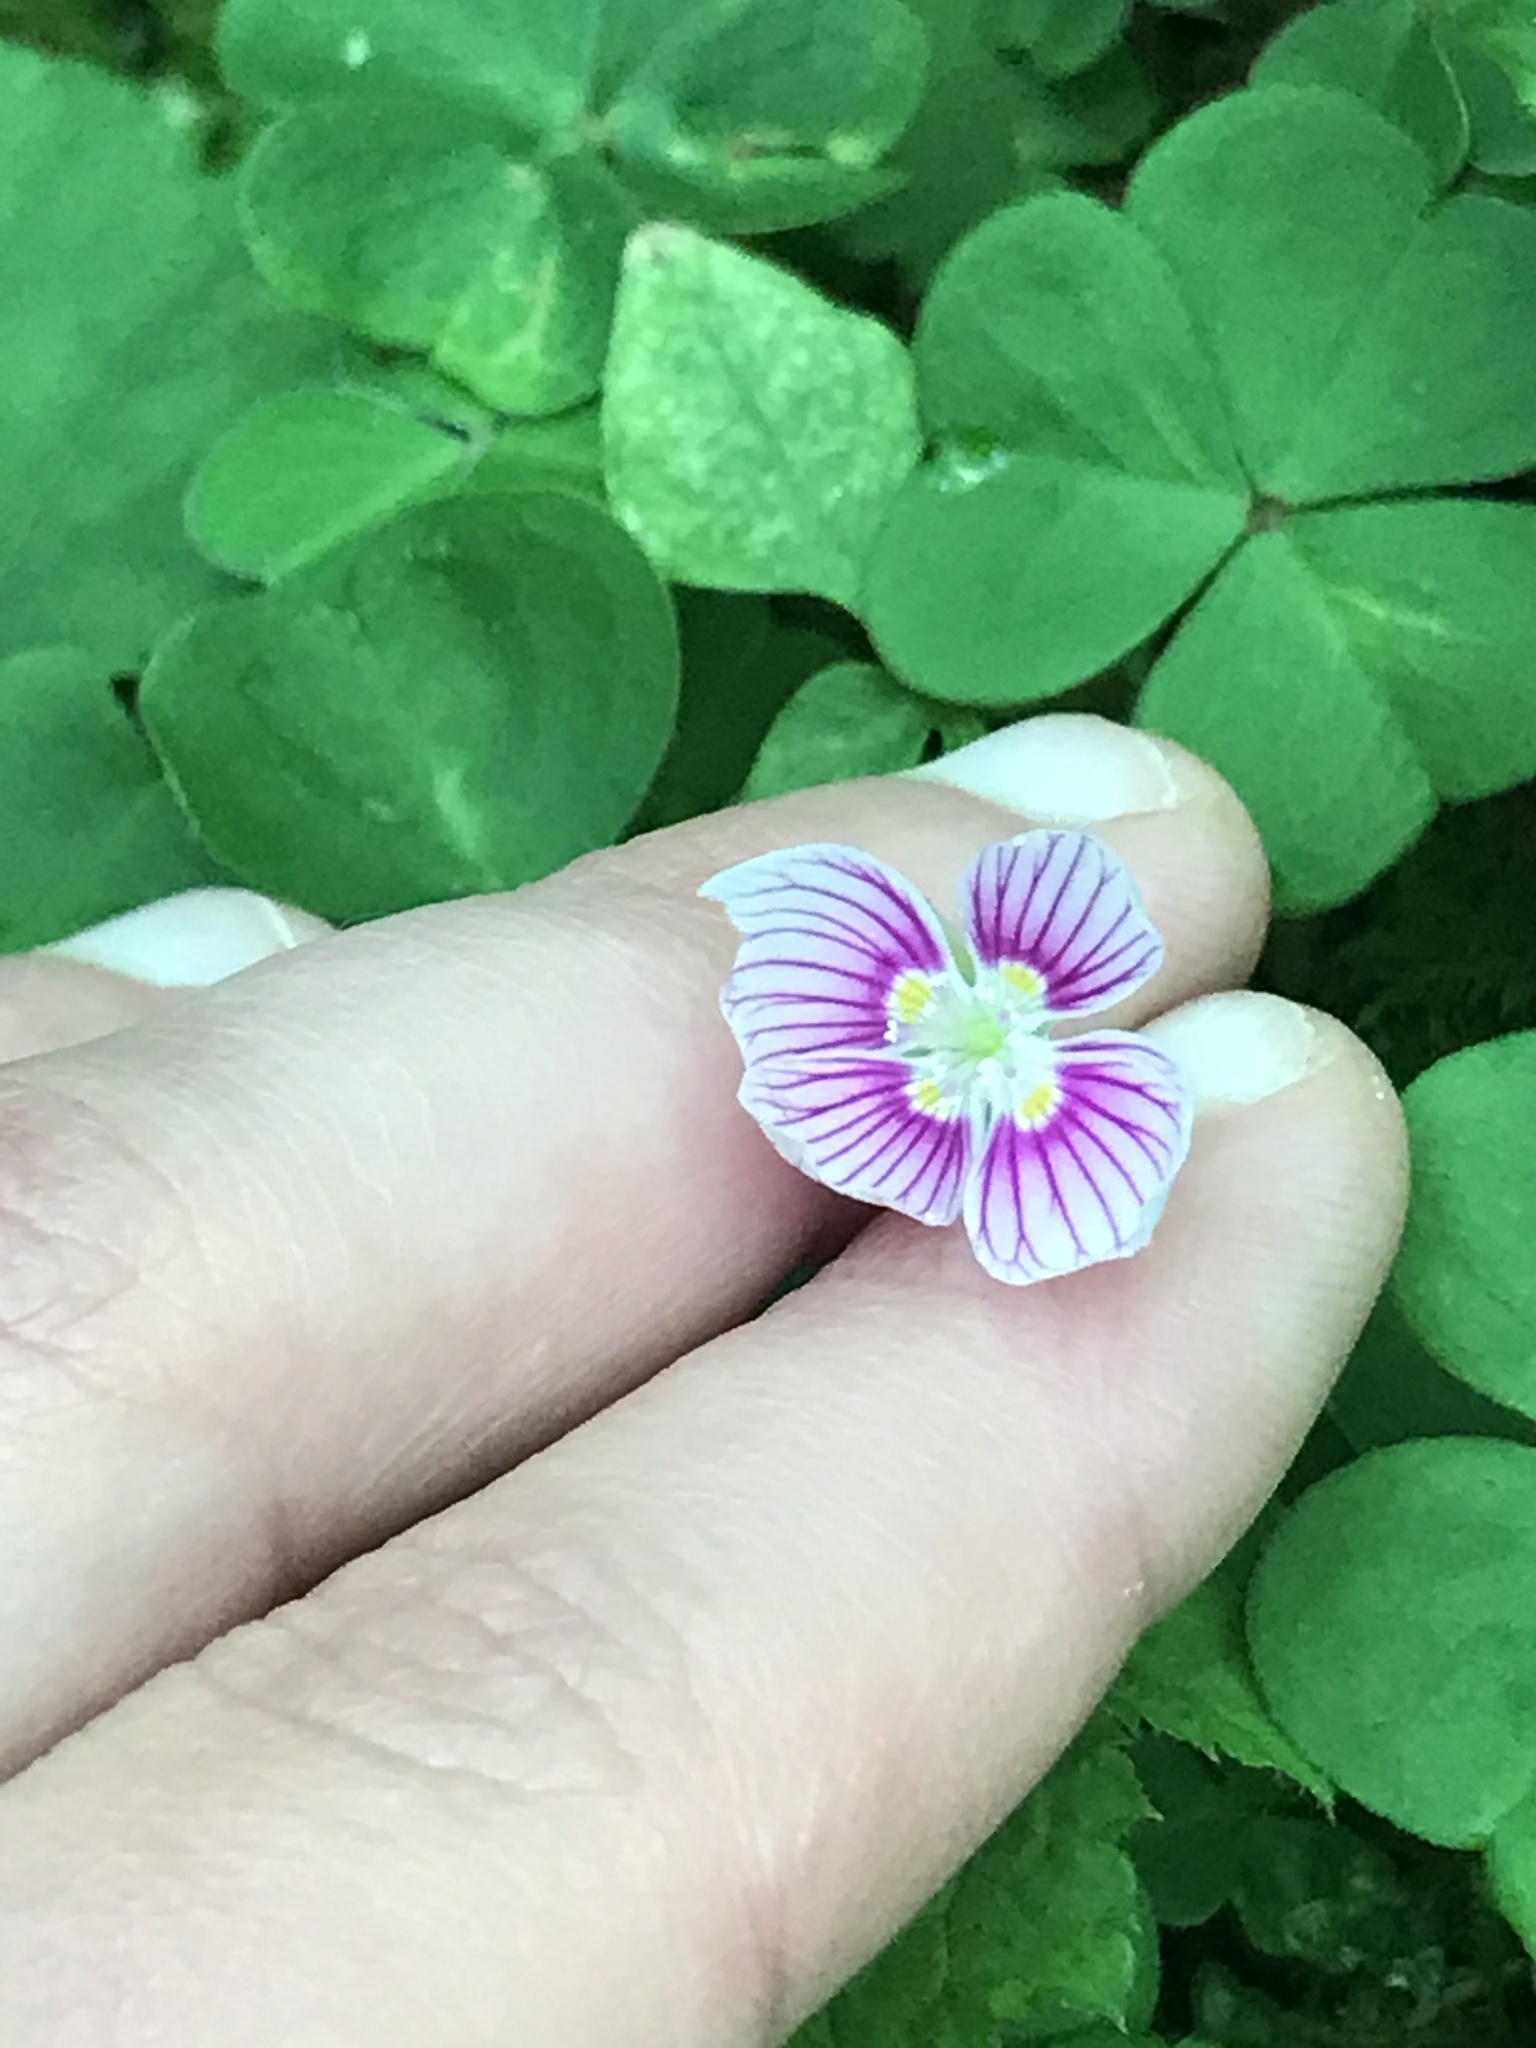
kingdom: Plantae
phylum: Tracheophyta
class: Magnoliopsida
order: Oxalidales
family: Oxalidaceae
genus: Oxalis
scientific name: Oxalis montana
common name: American wood-sorrel
